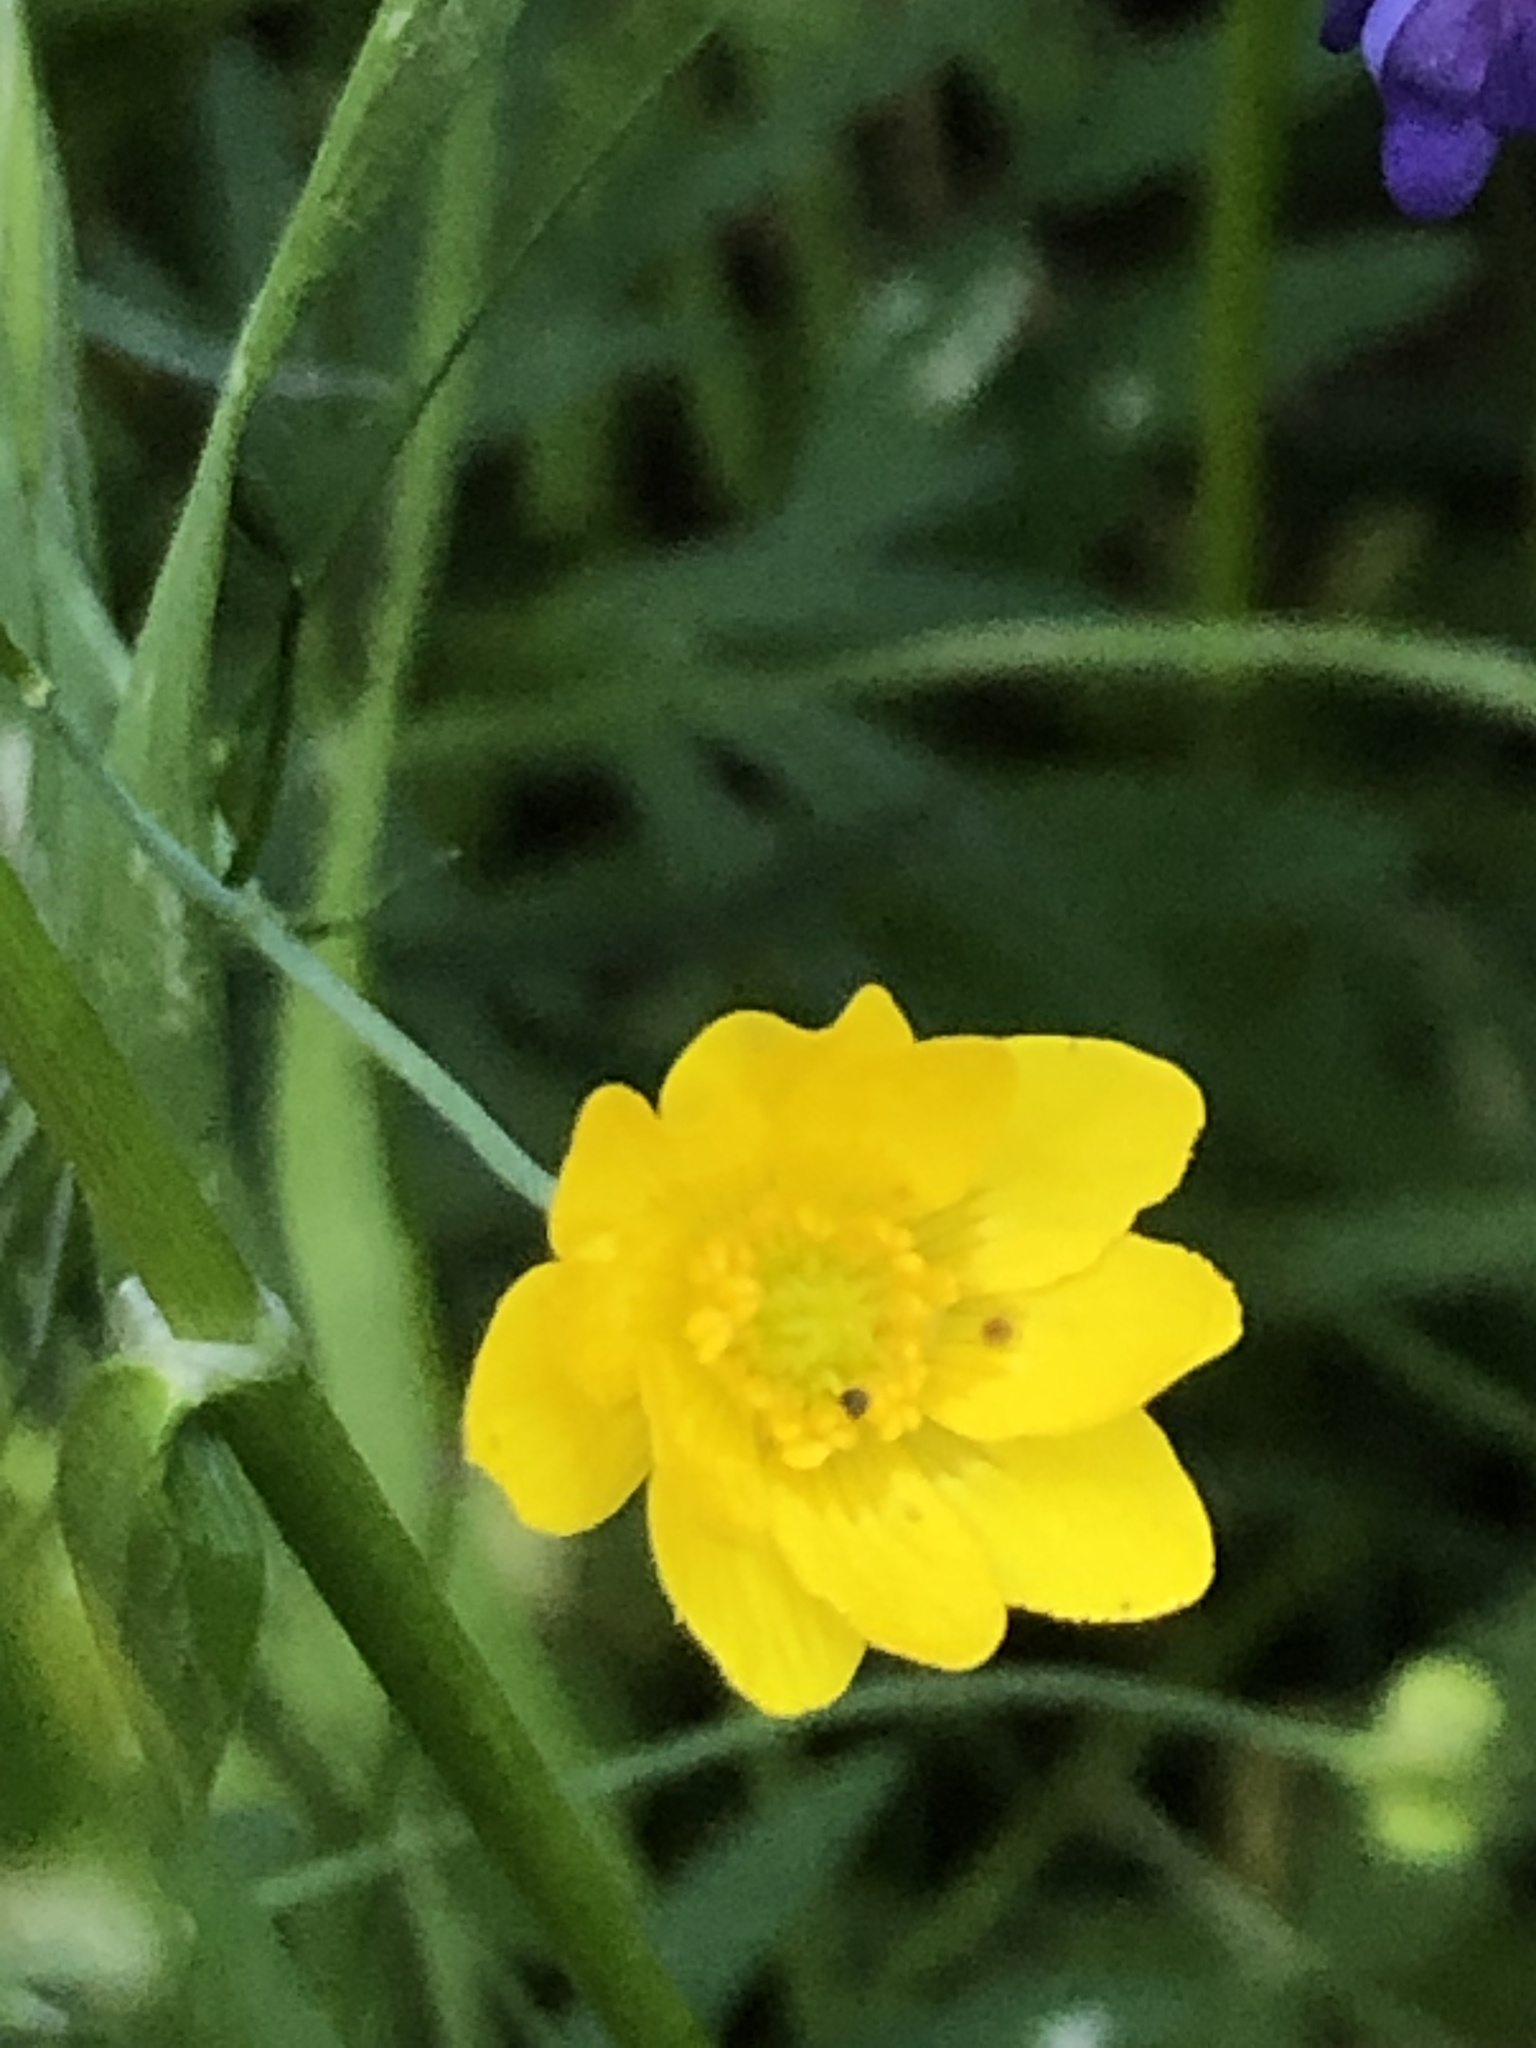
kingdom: Plantae
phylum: Tracheophyta
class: Magnoliopsida
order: Ranunculales
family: Ranunculaceae
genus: Ranunculus
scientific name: Ranunculus californicus
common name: California buttercup
